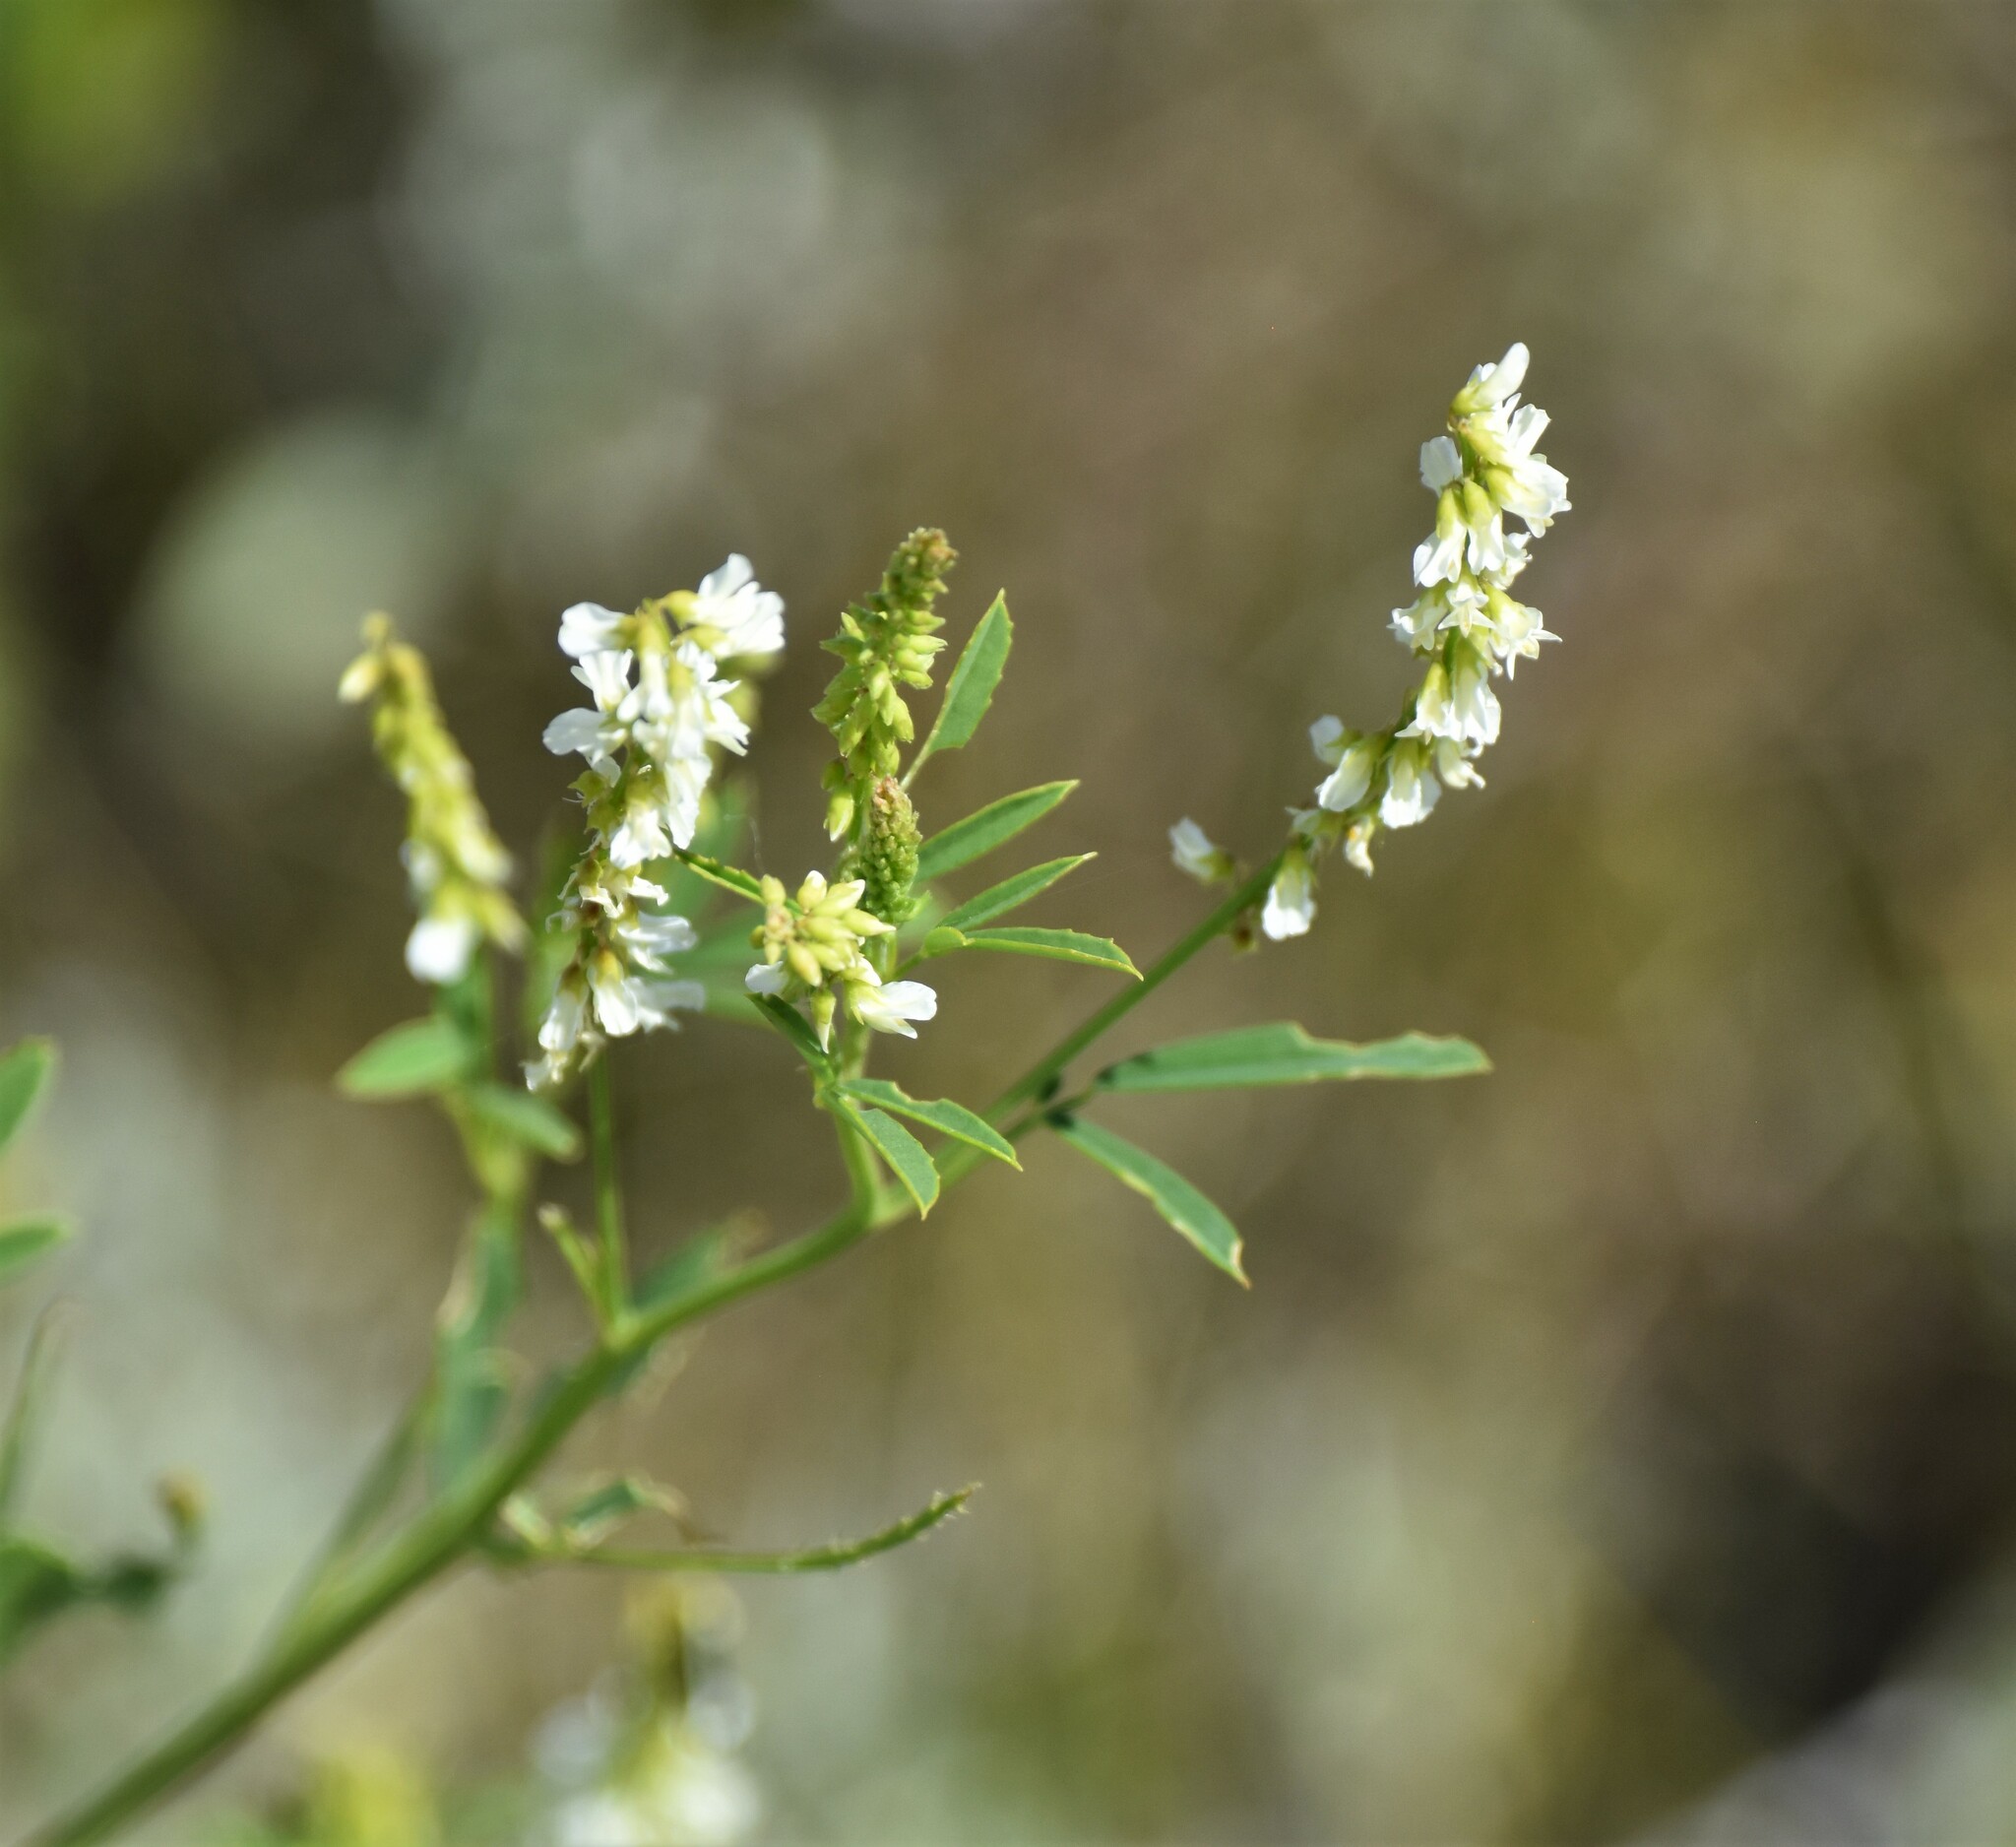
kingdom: Plantae
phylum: Tracheophyta
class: Magnoliopsida
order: Fabales
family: Fabaceae
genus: Melilotus
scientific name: Melilotus albus
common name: White melilot
